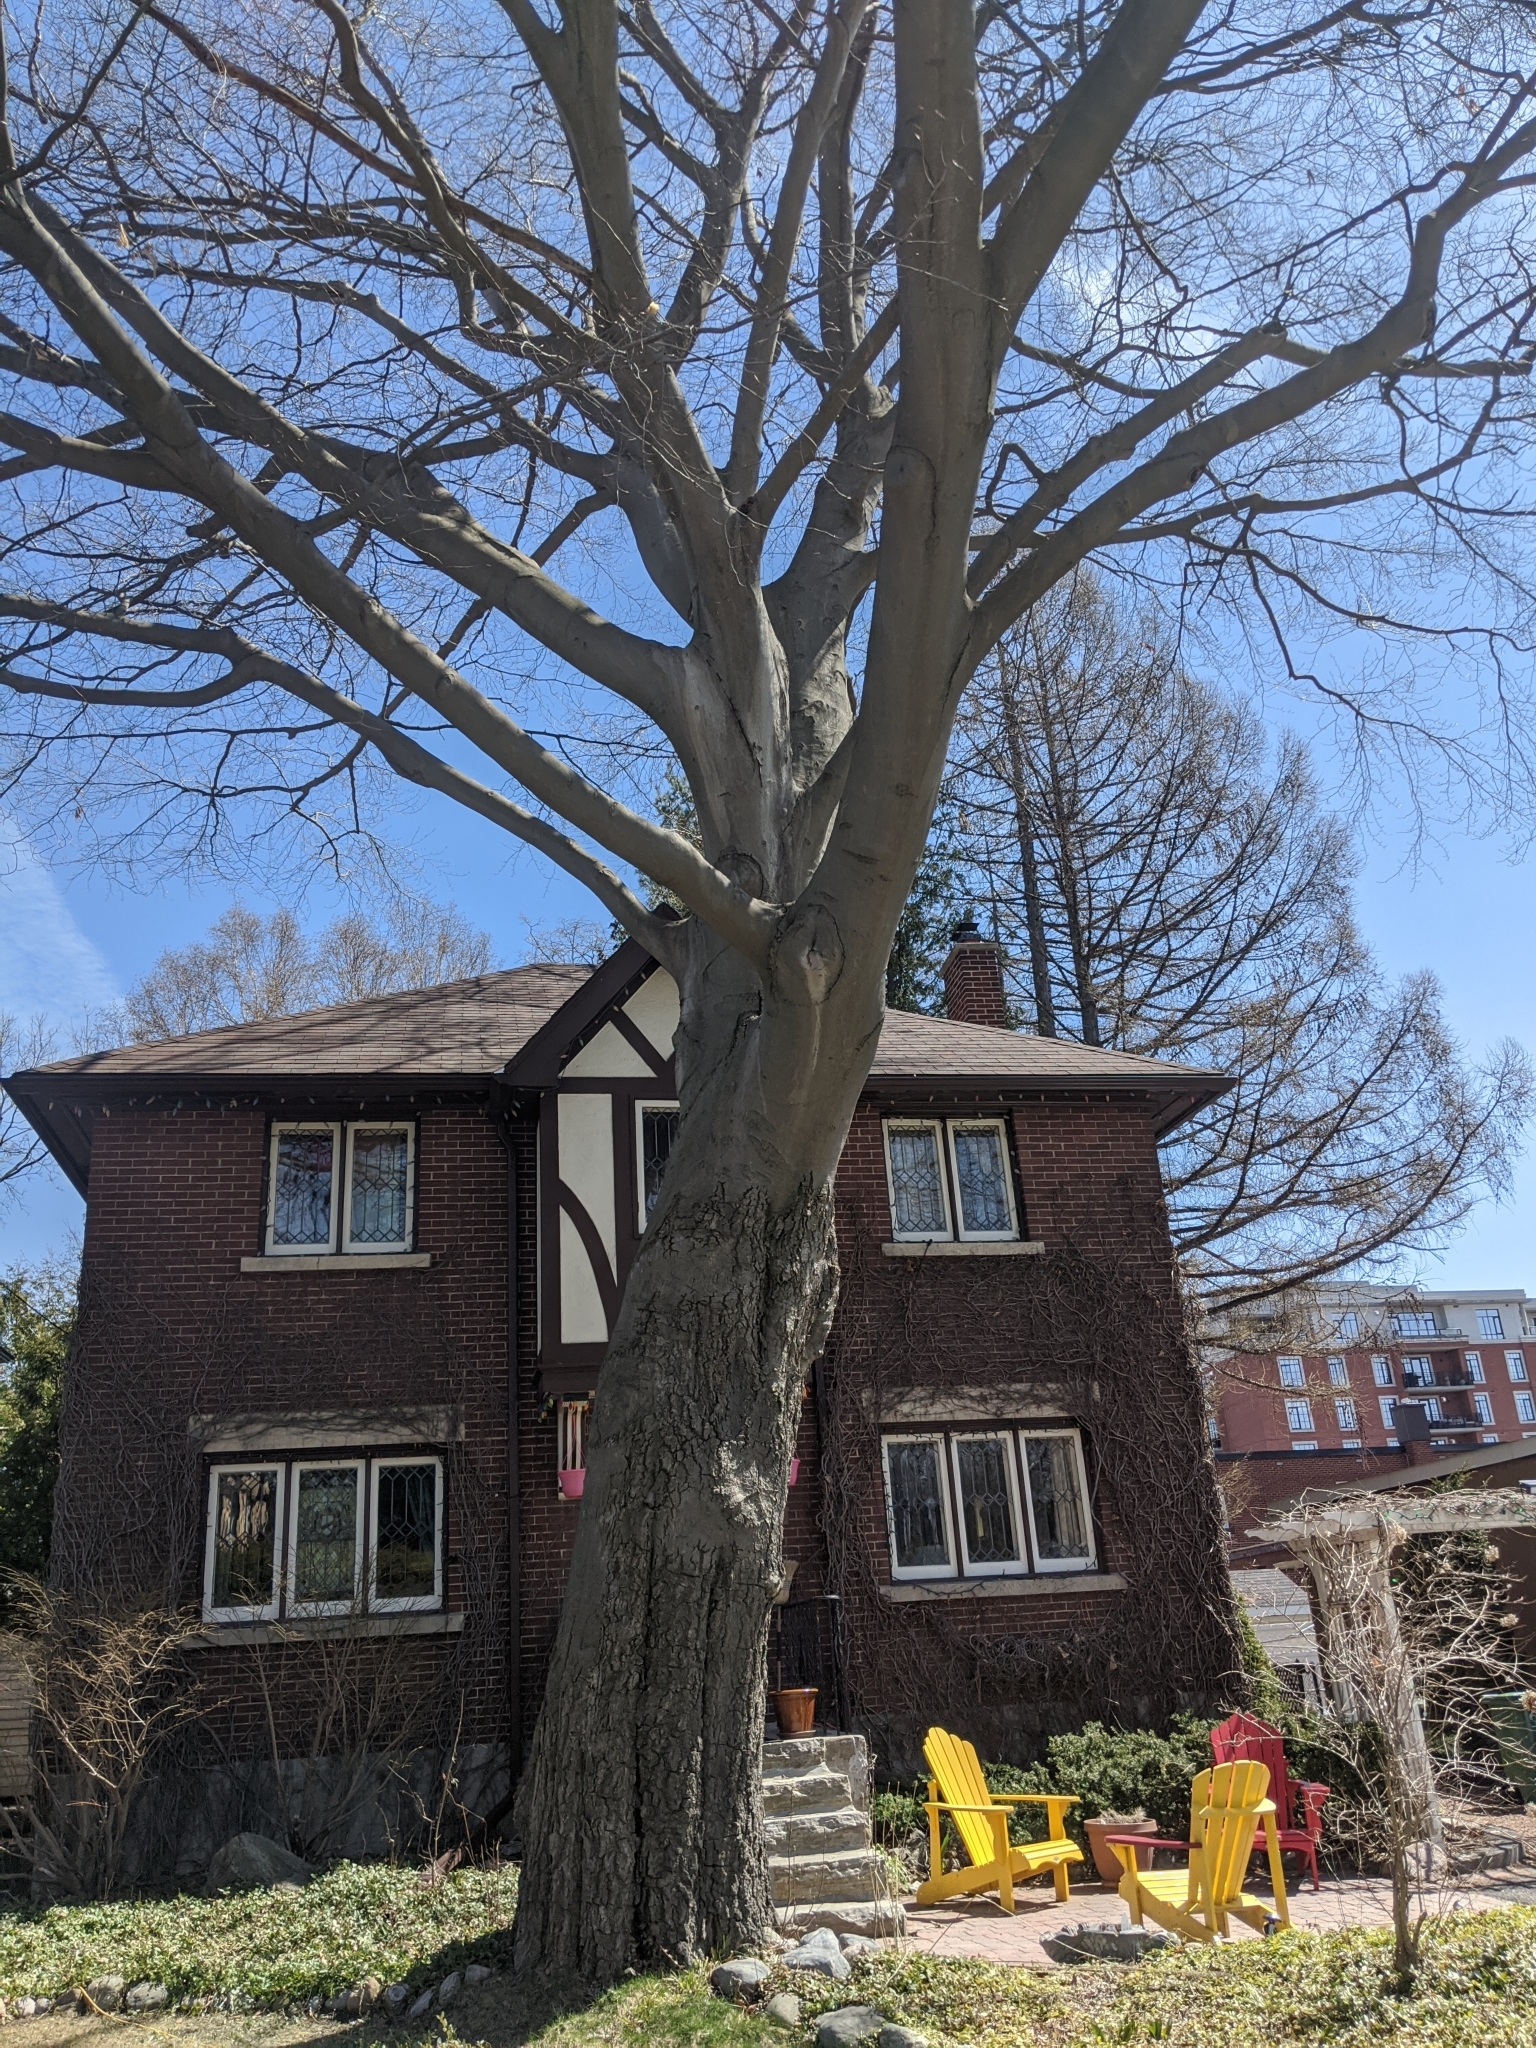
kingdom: Plantae
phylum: Tracheophyta
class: Magnoliopsida
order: Fagales
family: Fagaceae
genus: Fagus
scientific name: Fagus grandifolia
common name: American beech
